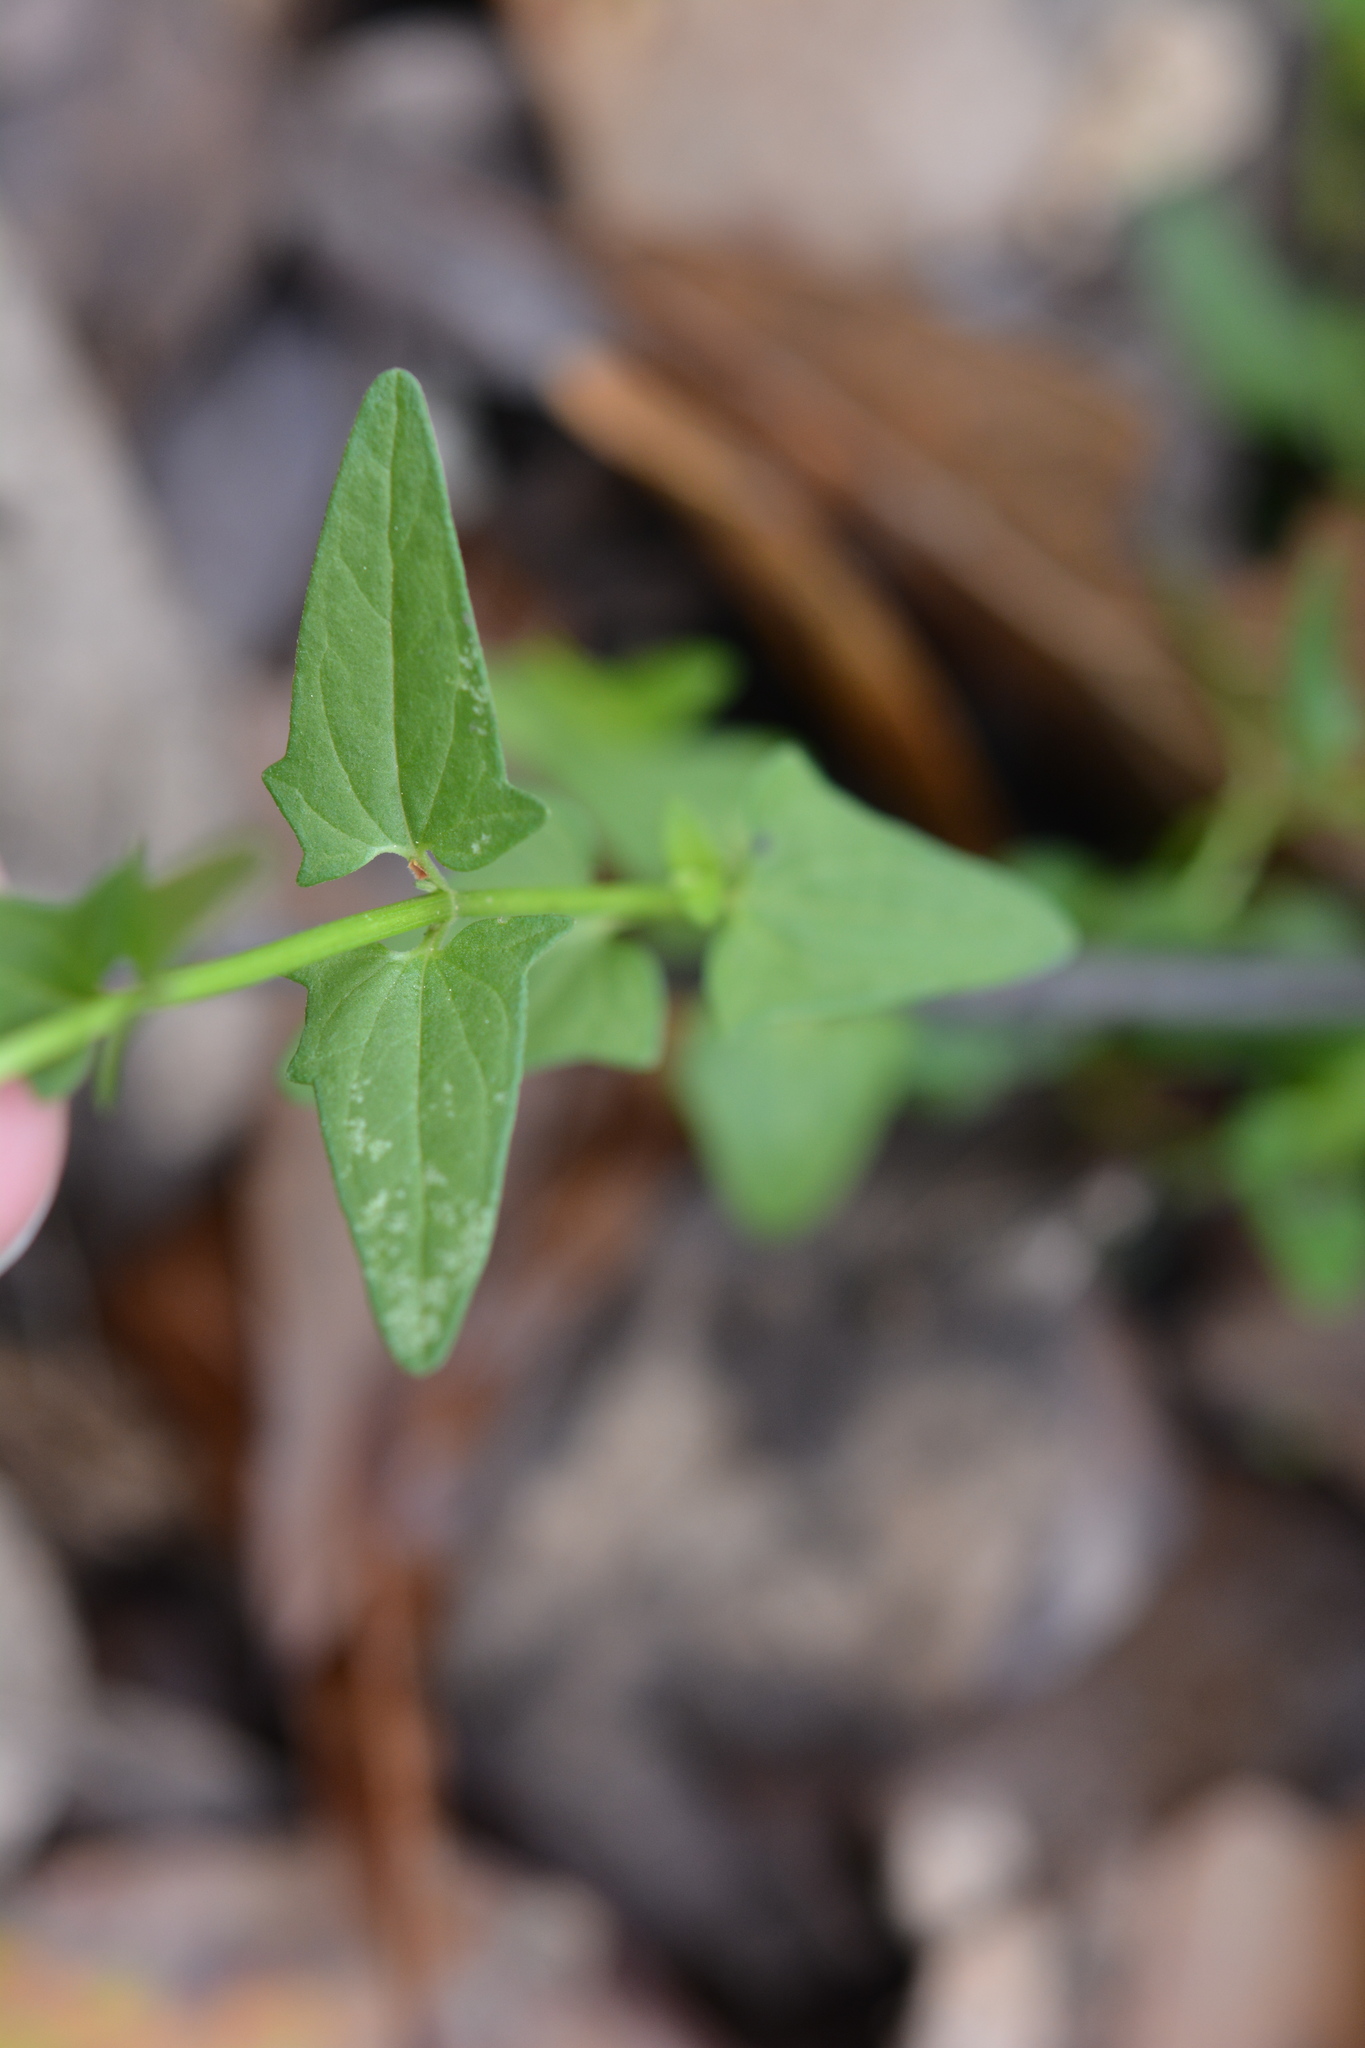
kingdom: Plantae
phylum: Tracheophyta
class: Magnoliopsida
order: Lamiales
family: Lamiaceae
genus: Scutellaria
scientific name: Scutellaria racemosa
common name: South american skullcap
